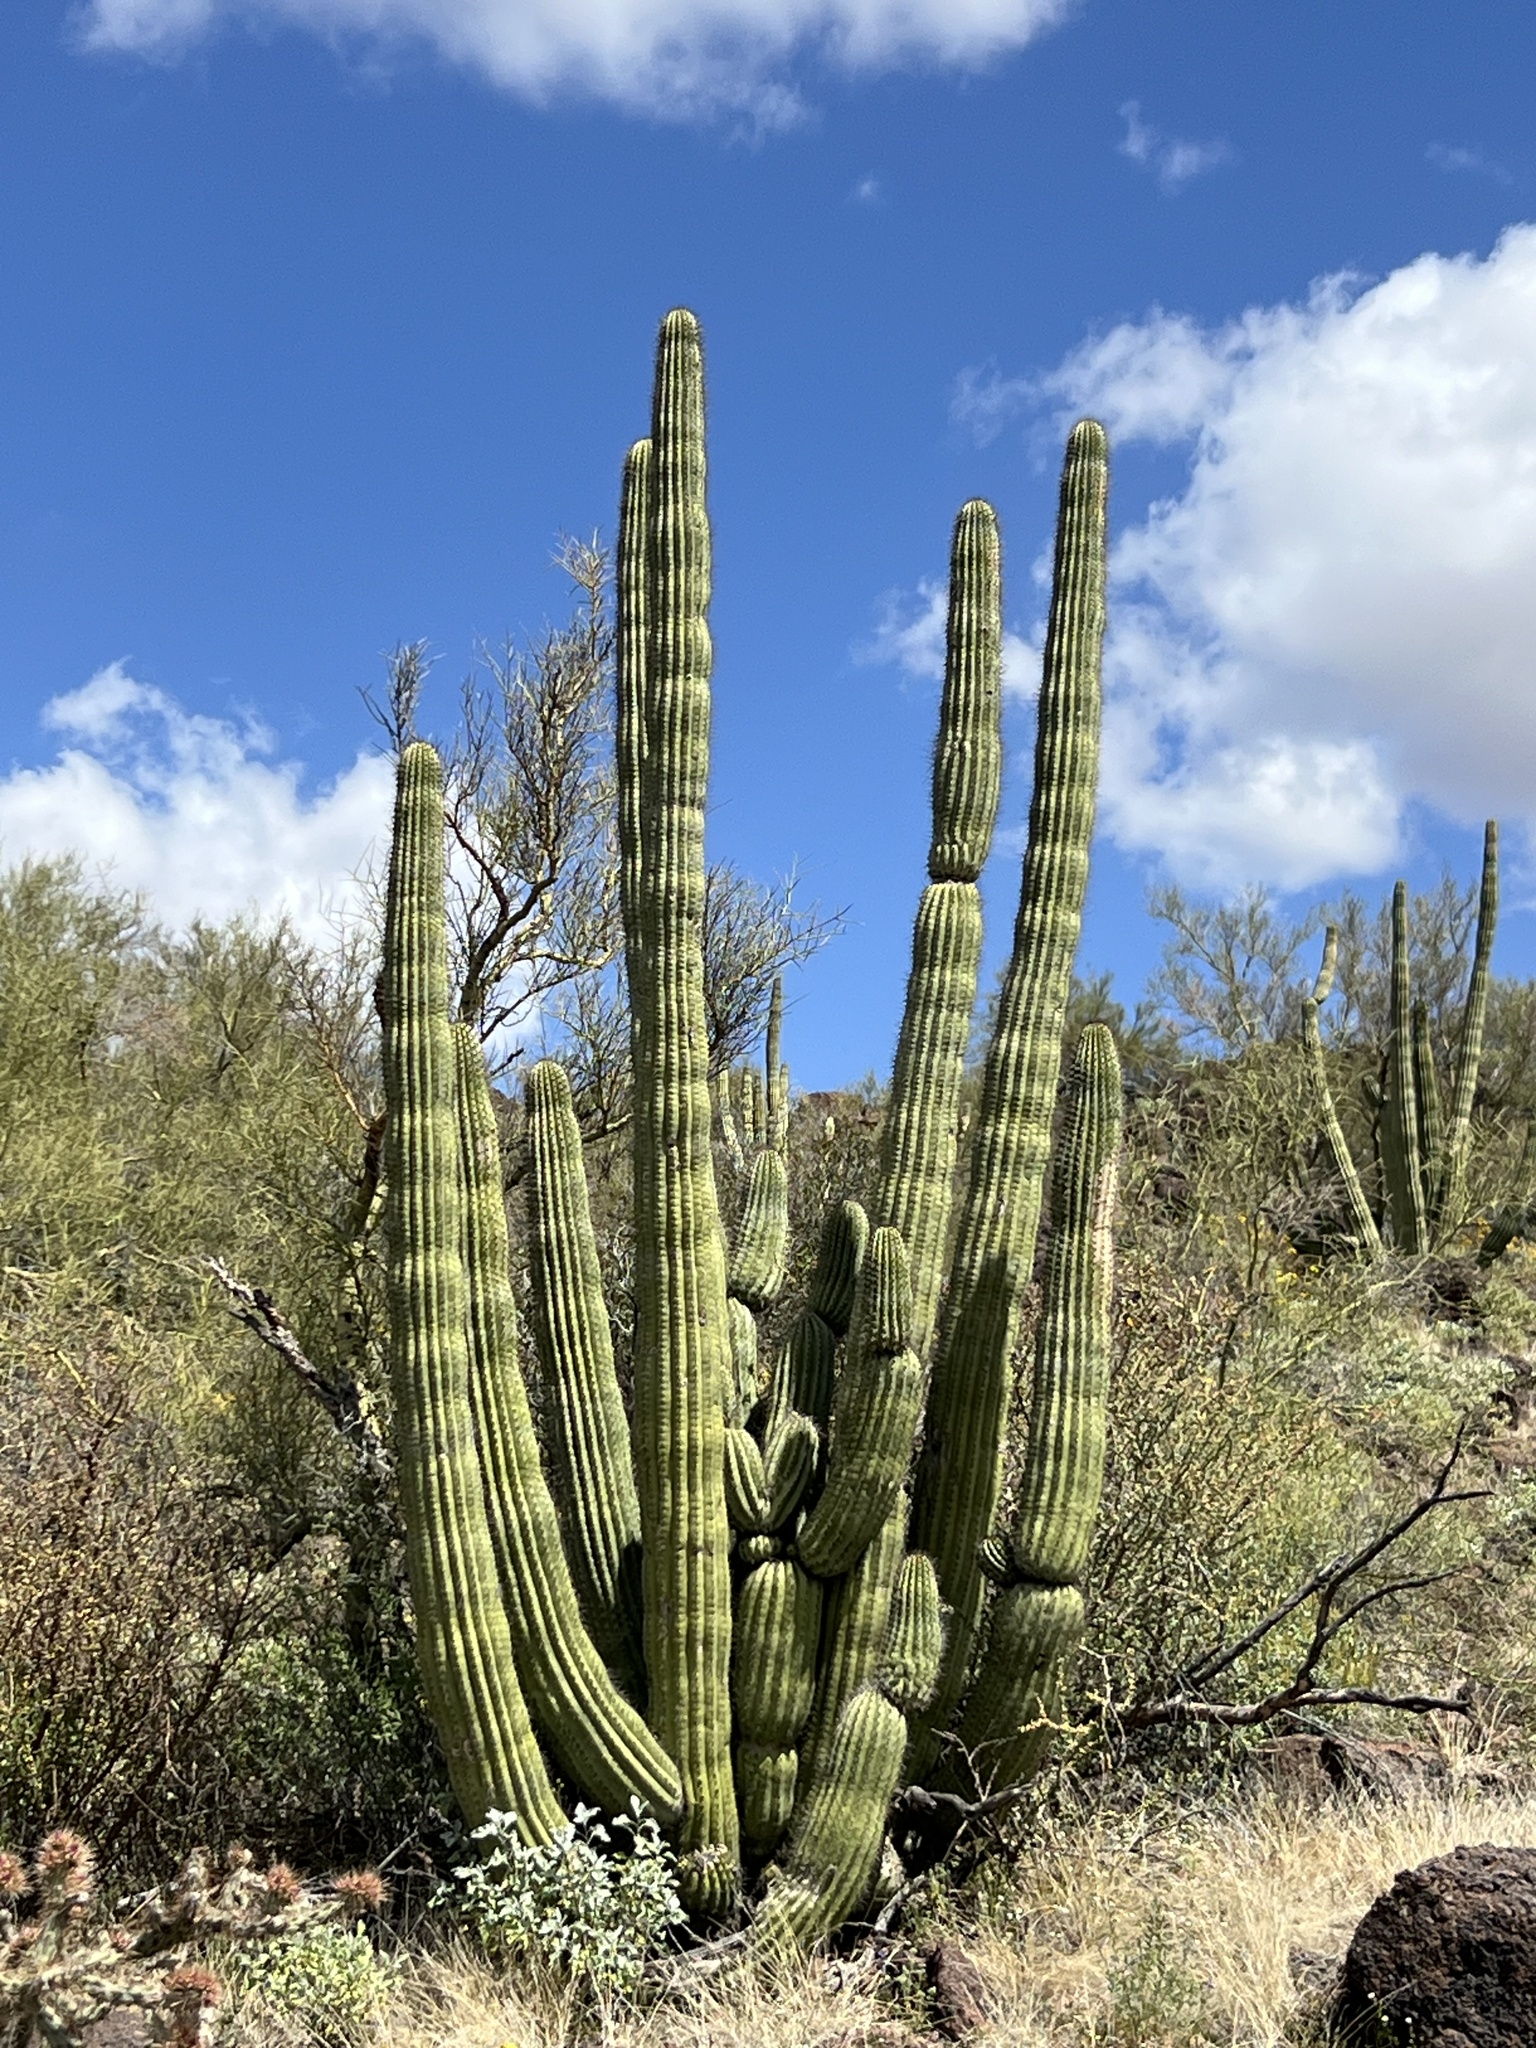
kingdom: Plantae
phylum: Tracheophyta
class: Magnoliopsida
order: Caryophyllales
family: Cactaceae
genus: Stenocereus
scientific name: Stenocereus thurberi
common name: Organ pipe cactus
